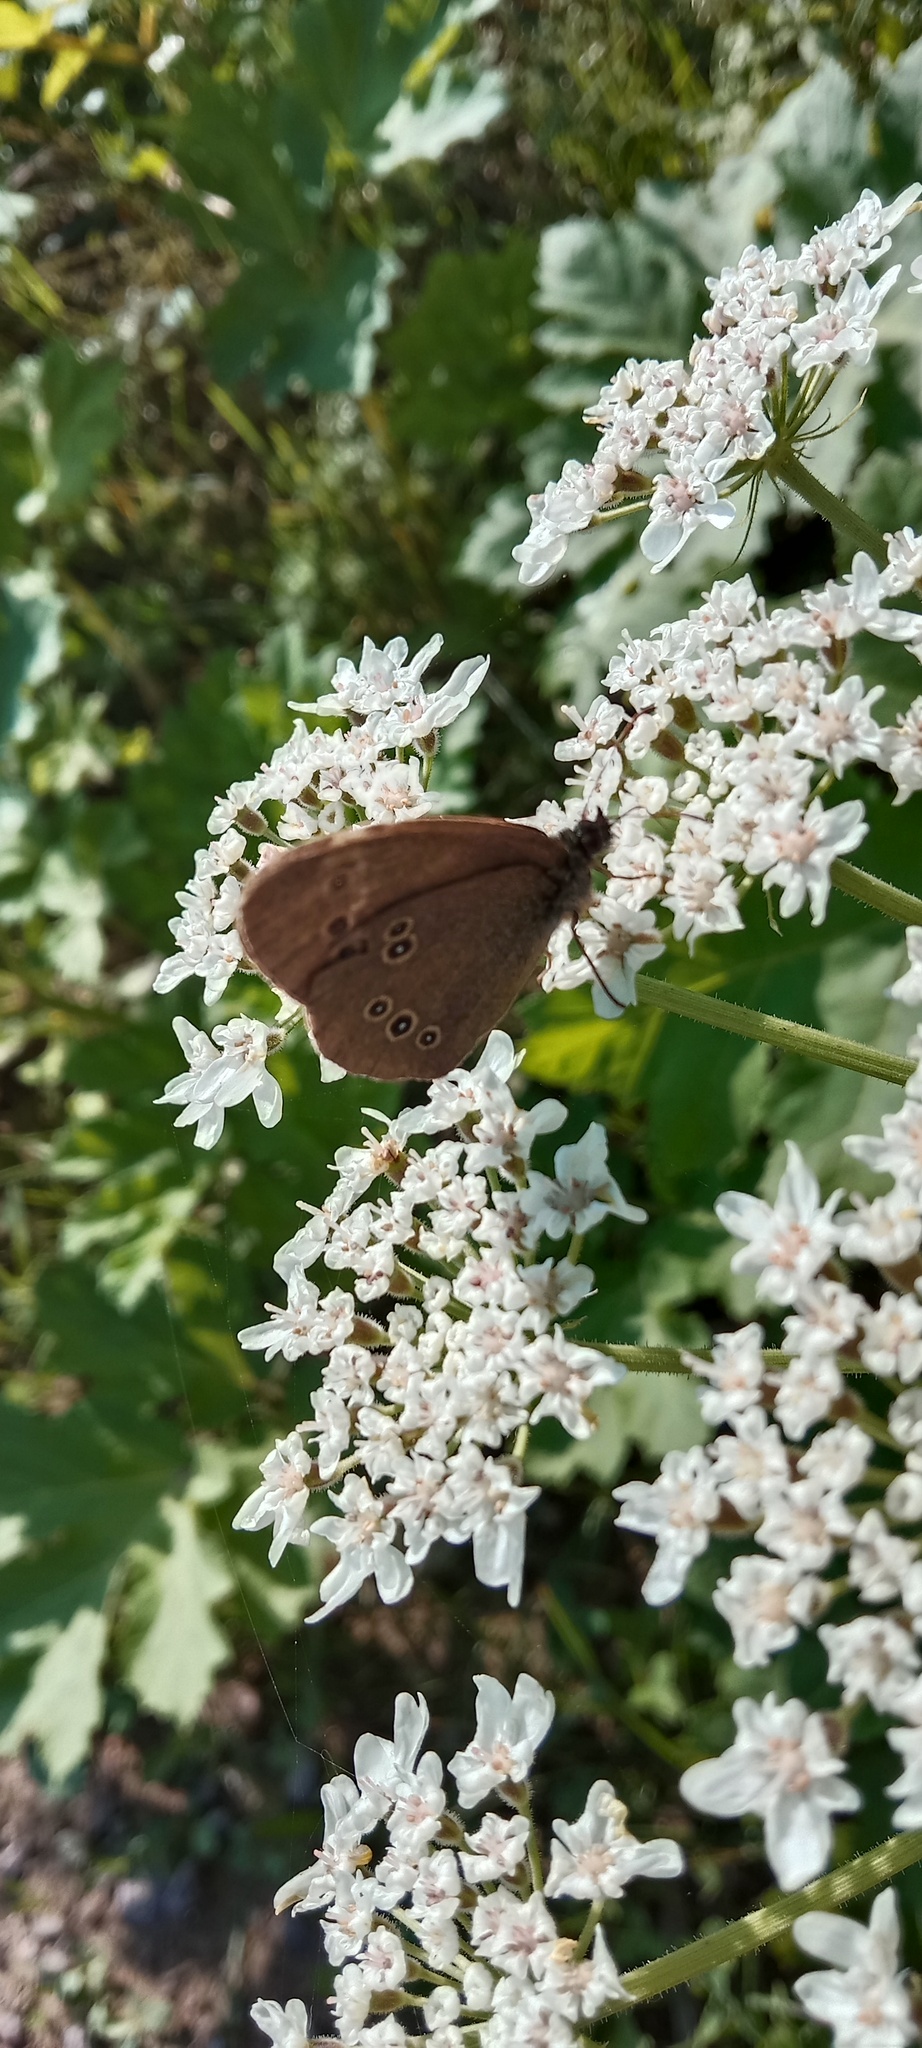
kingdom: Animalia
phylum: Arthropoda
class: Insecta
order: Lepidoptera
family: Nymphalidae
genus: Aphantopus
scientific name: Aphantopus hyperantus
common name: Ringlet
